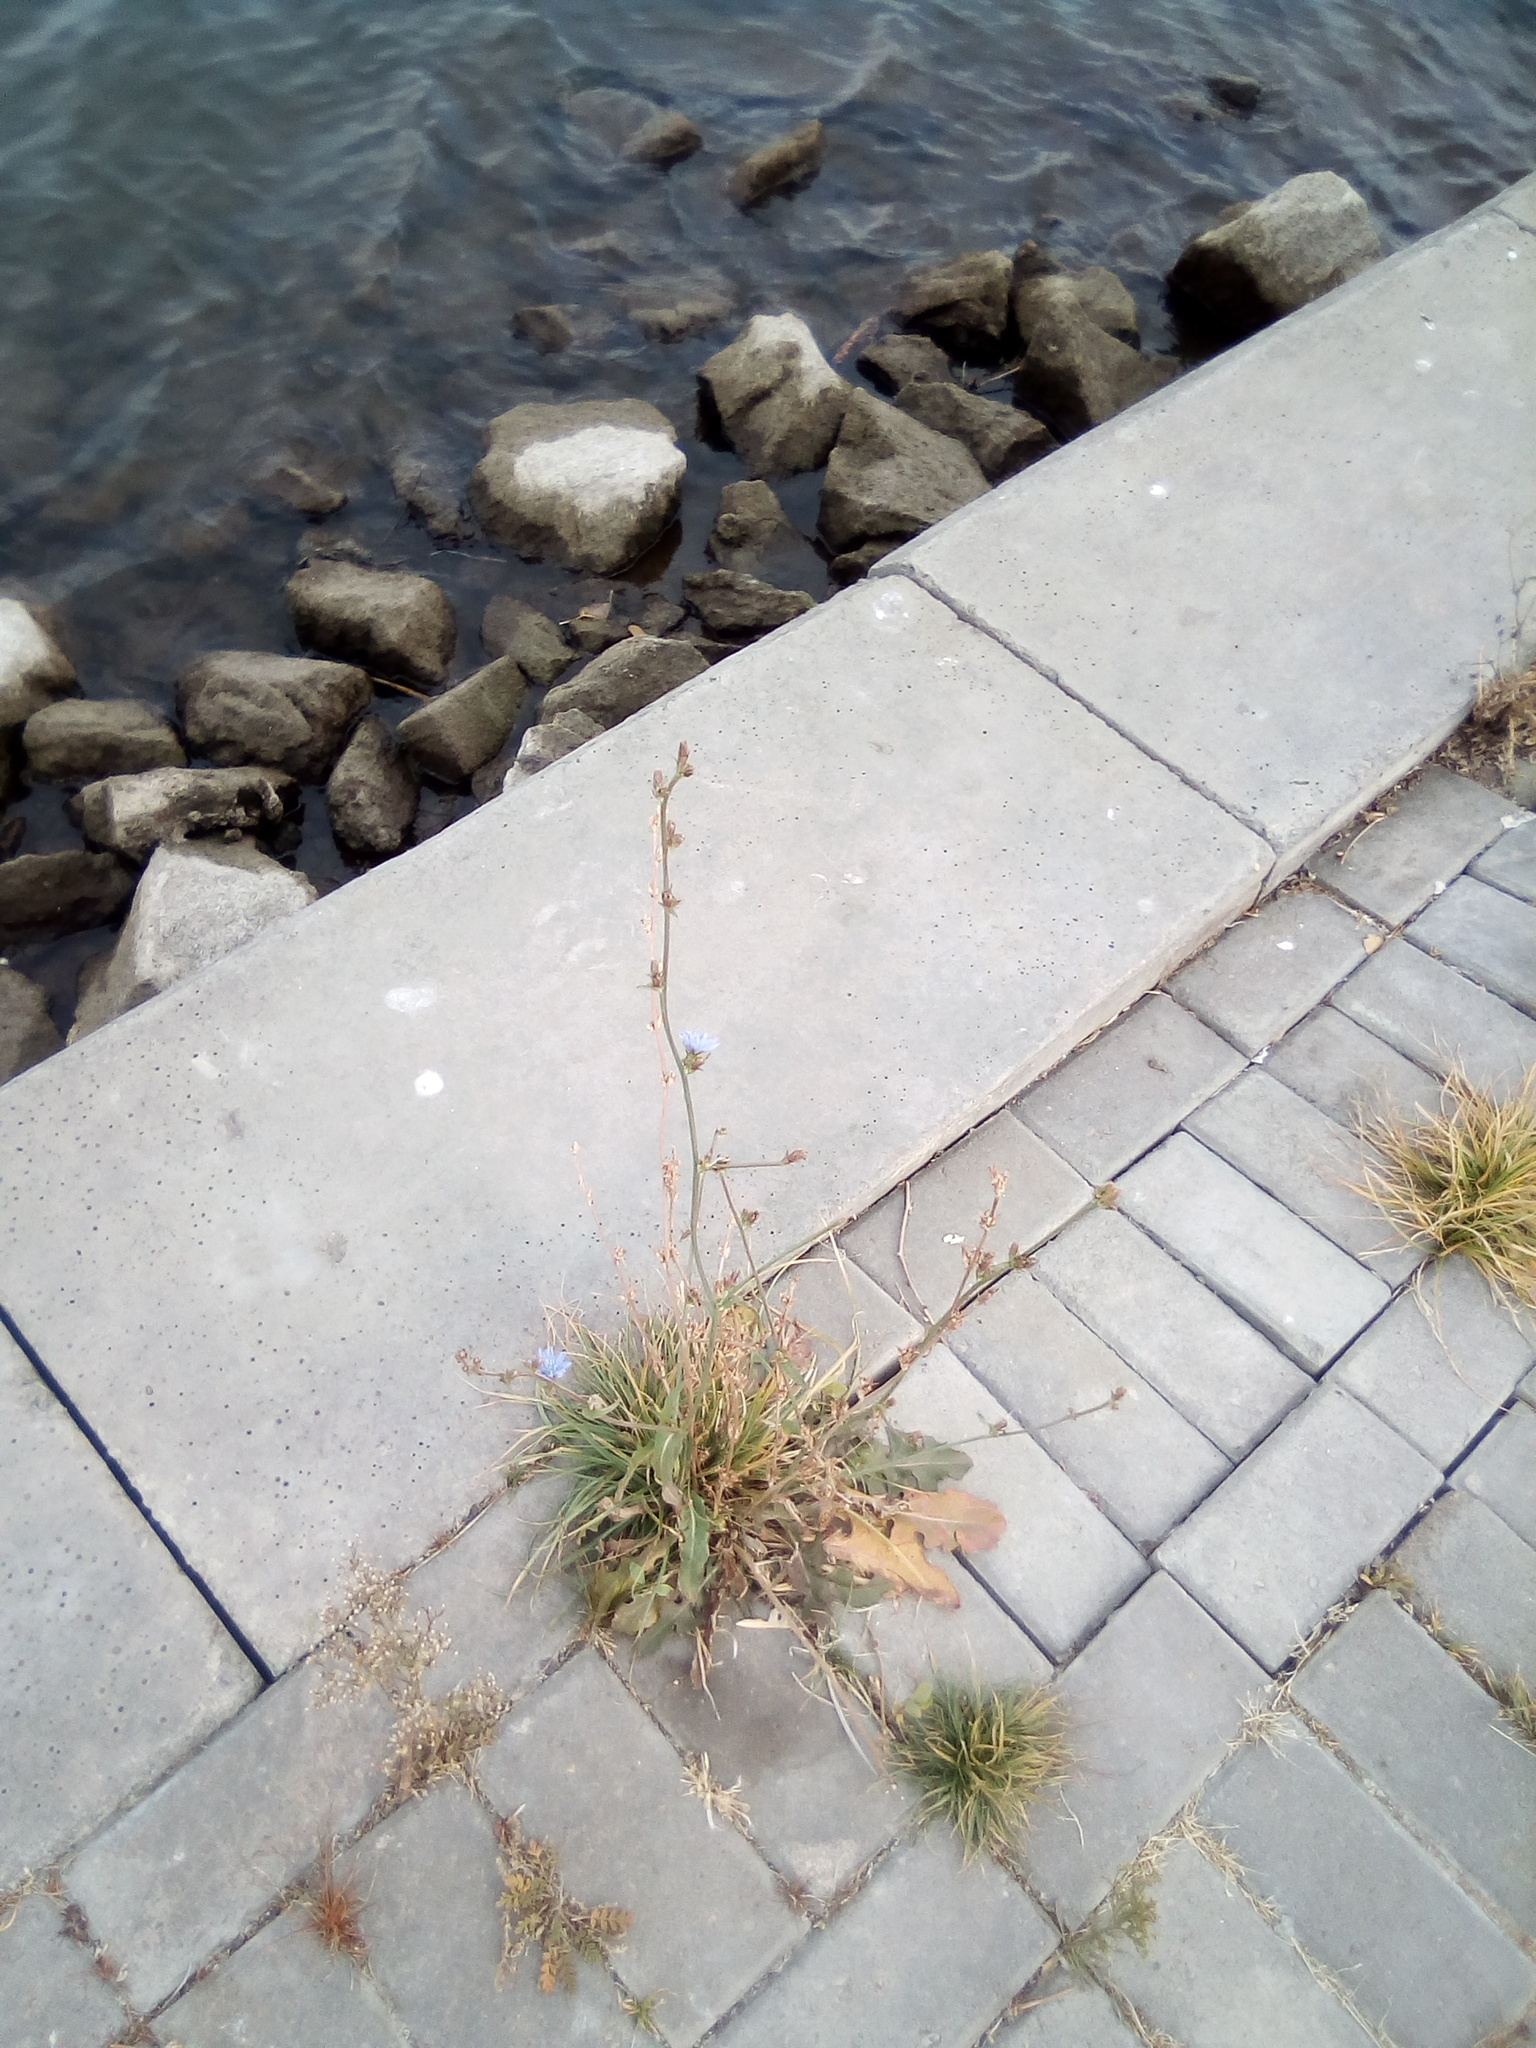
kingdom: Plantae
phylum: Tracheophyta
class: Magnoliopsida
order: Asterales
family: Asteraceae
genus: Cichorium
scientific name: Cichorium intybus
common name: Chicory
